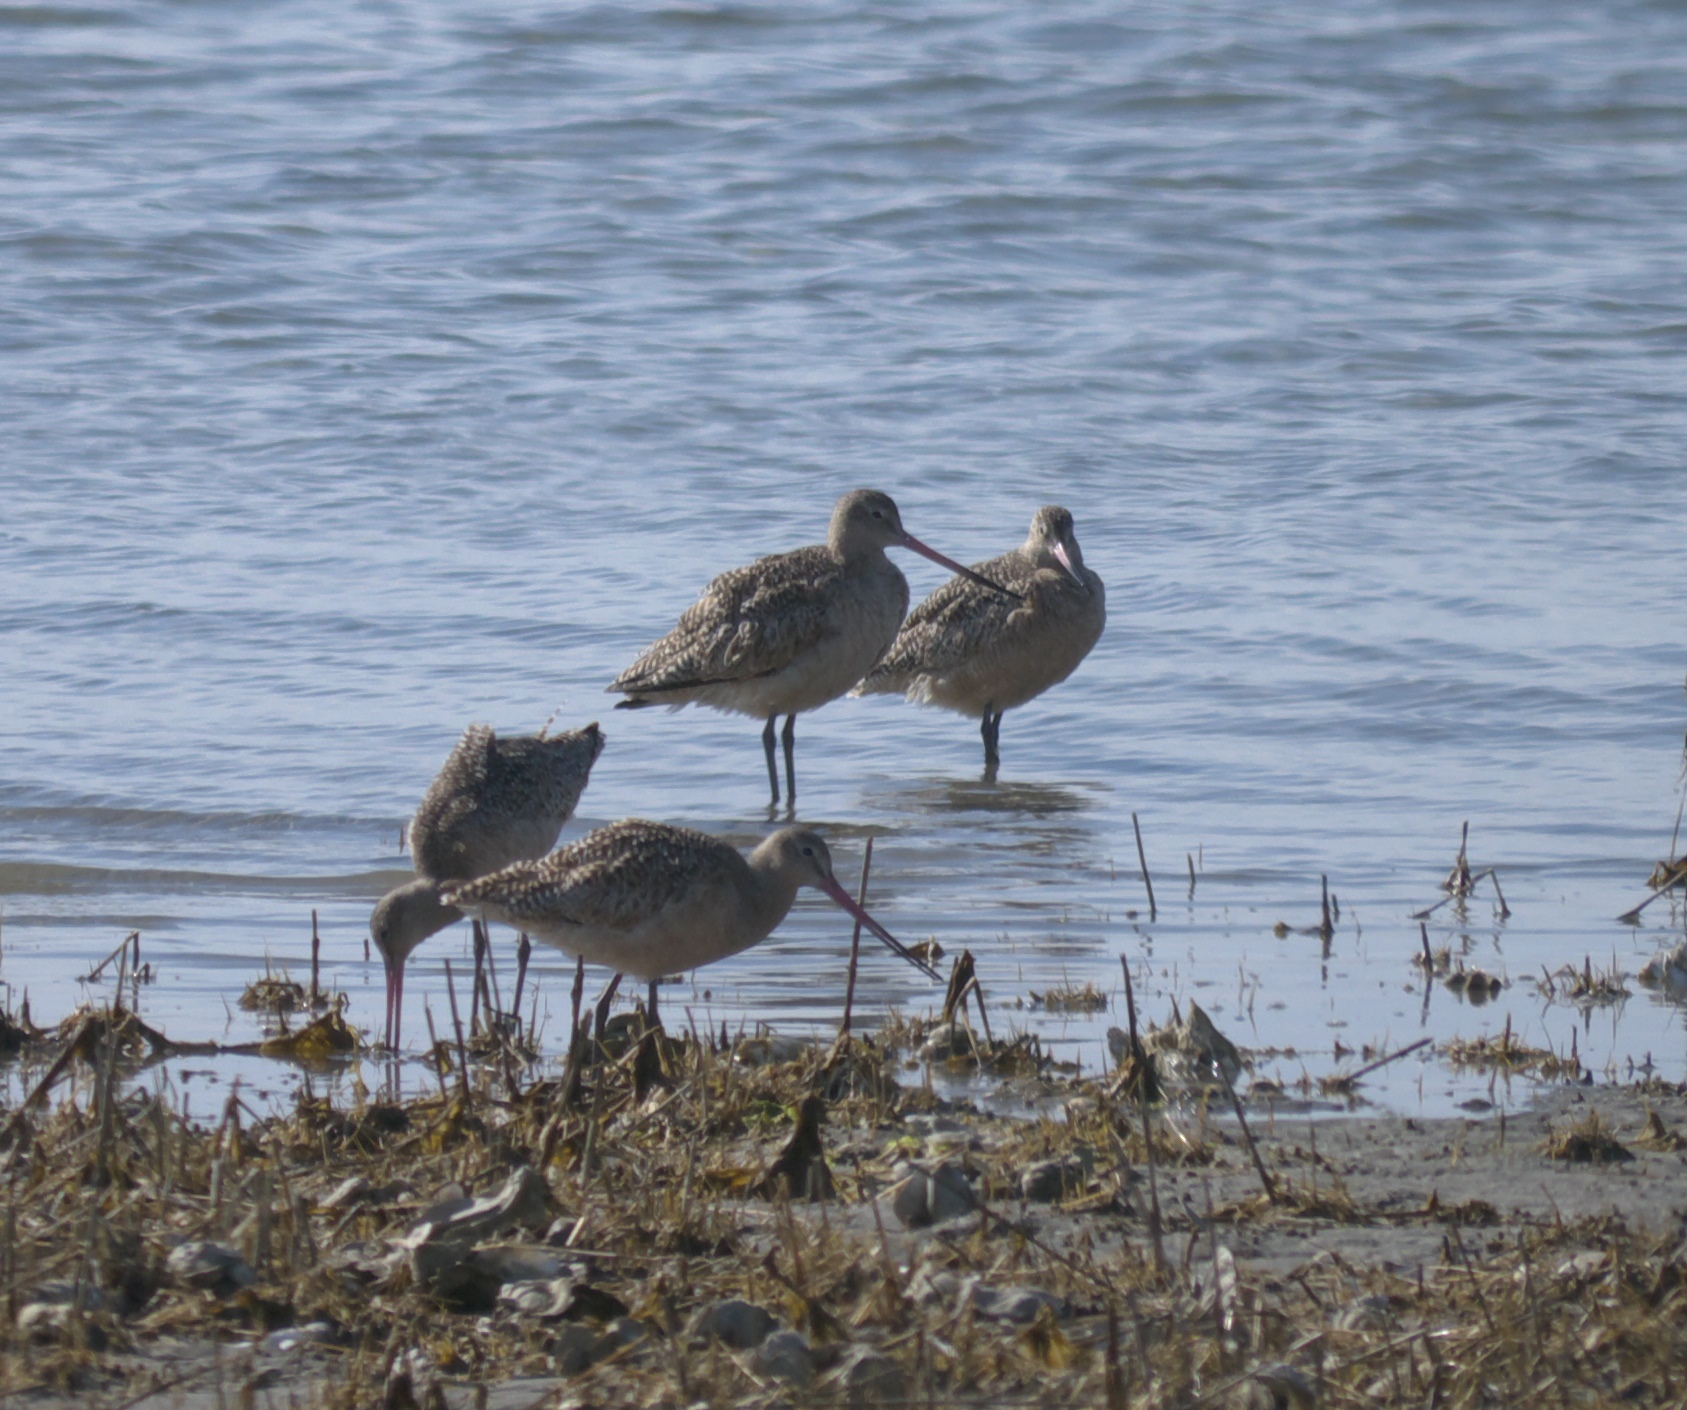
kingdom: Animalia
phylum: Chordata
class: Aves
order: Charadriiformes
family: Scolopacidae
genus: Limosa
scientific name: Limosa fedoa
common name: Marbled godwit
